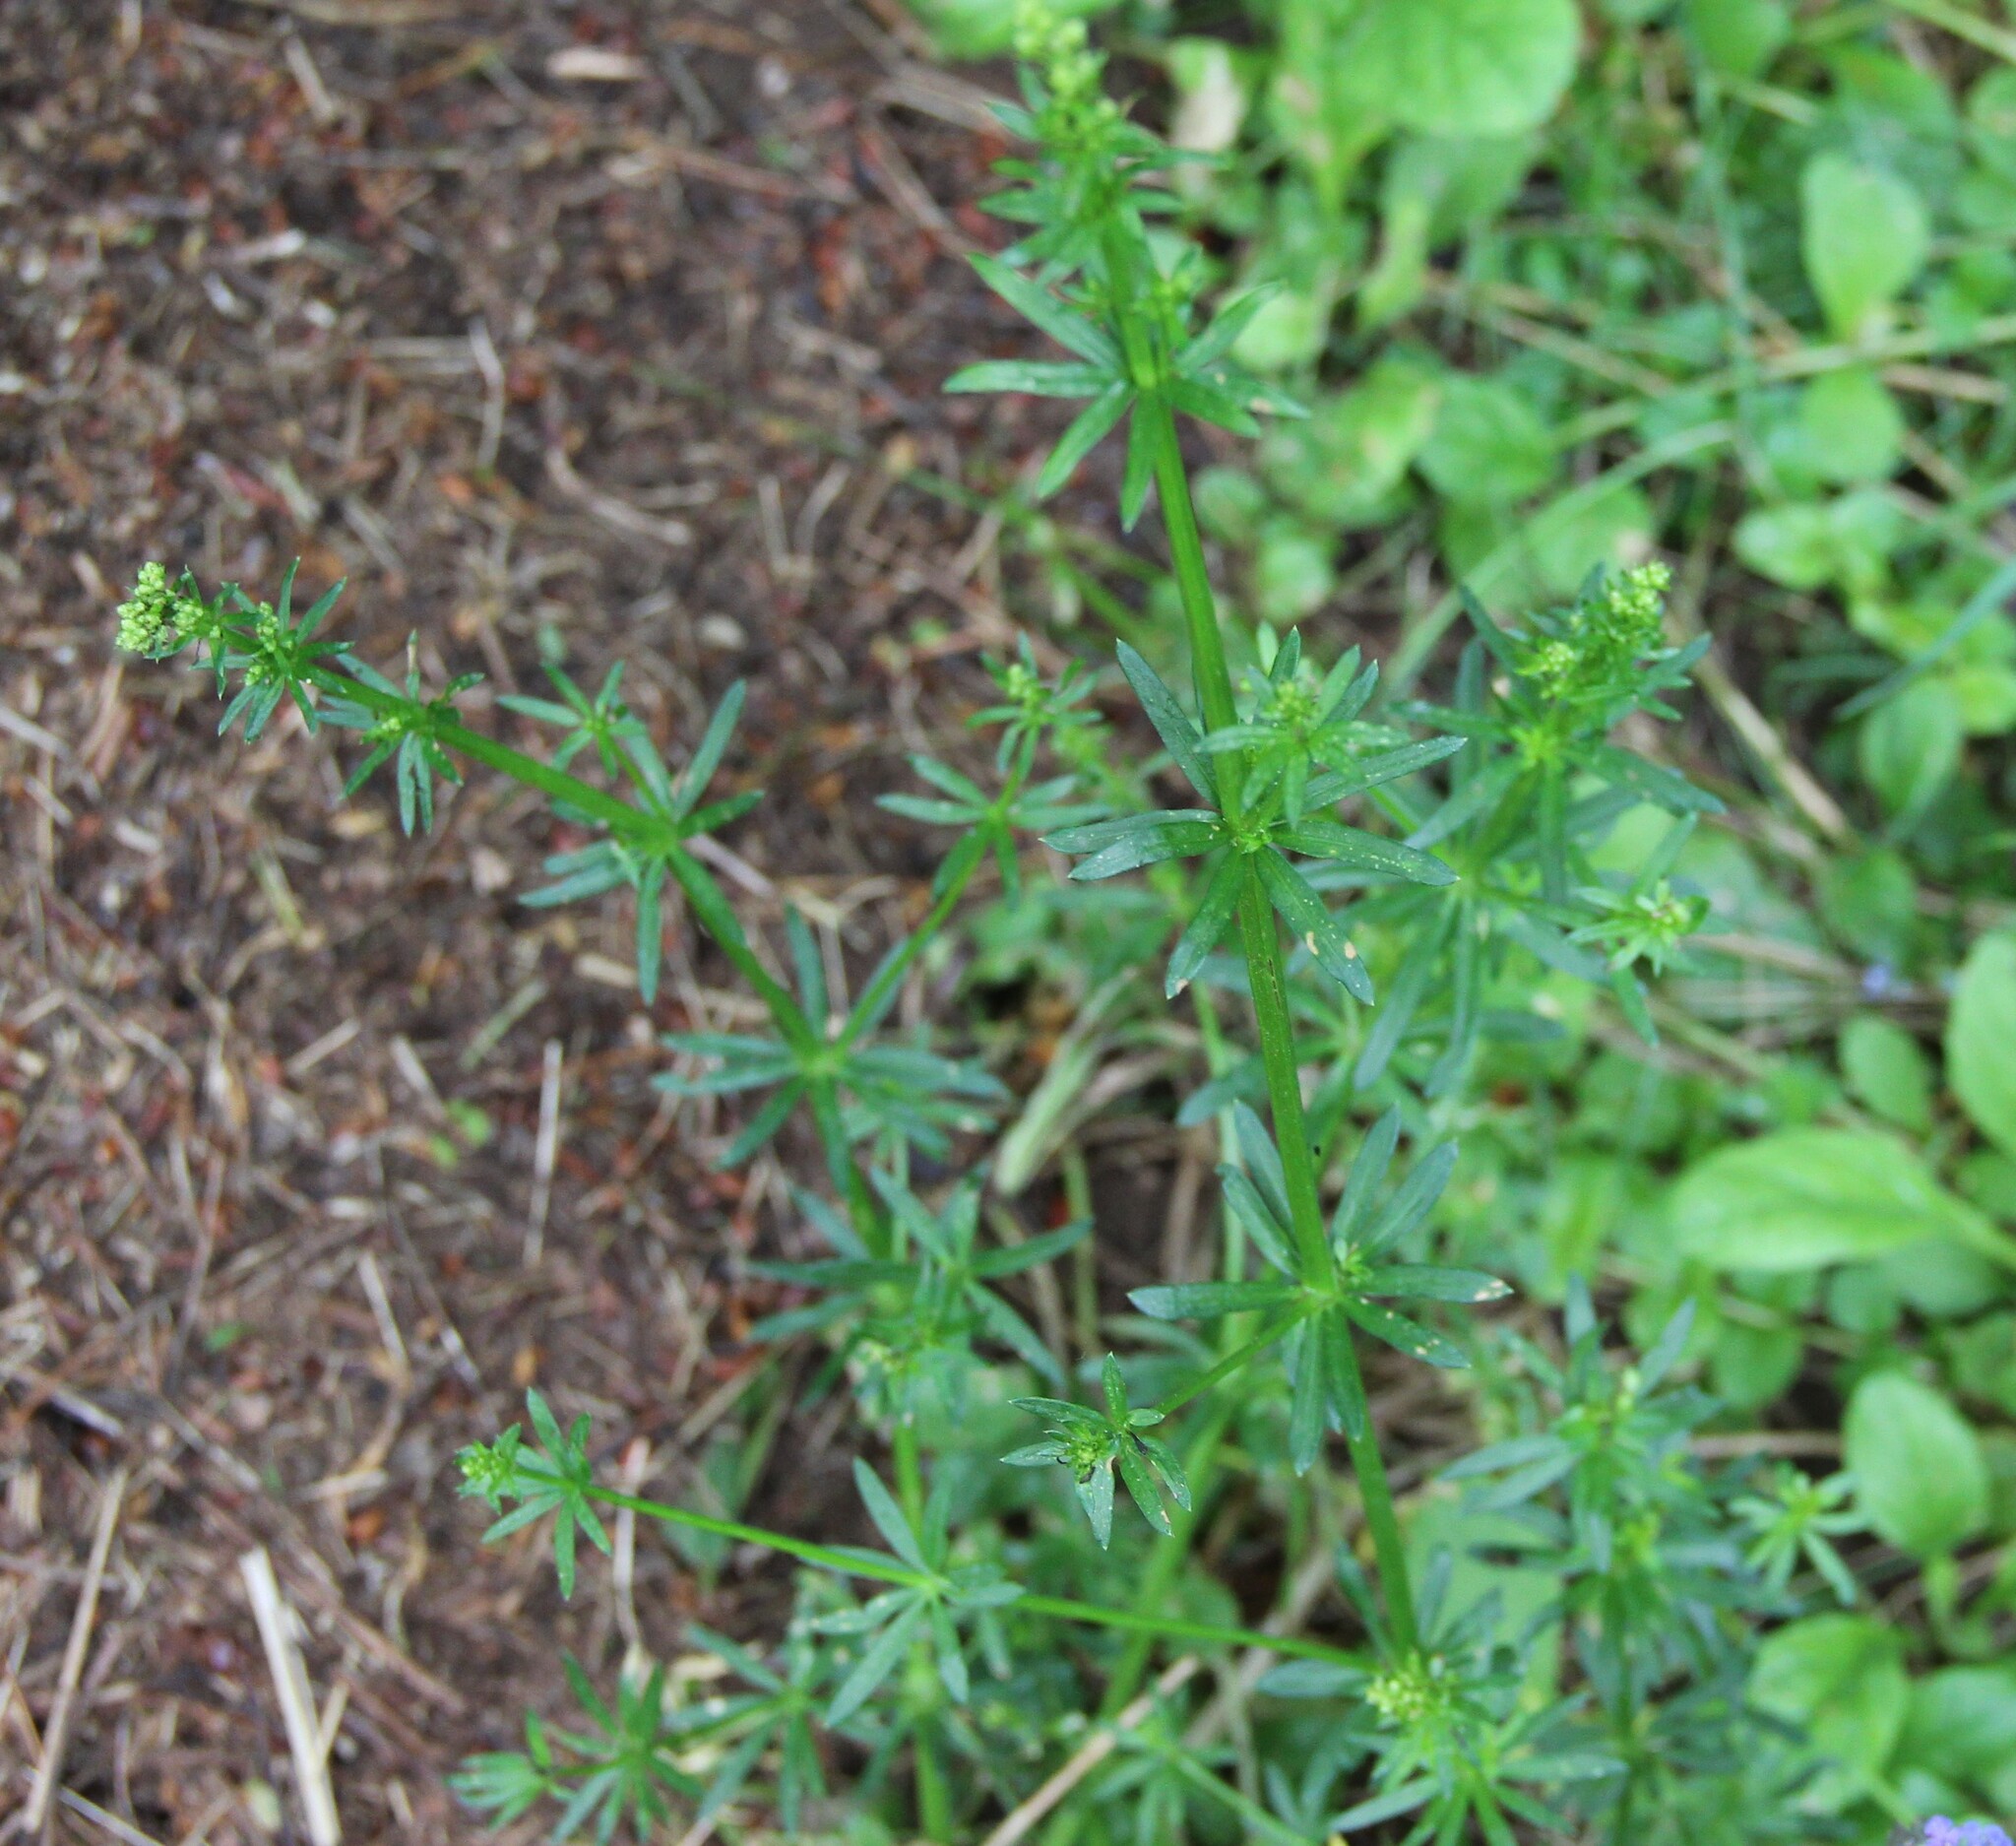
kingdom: Plantae
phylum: Tracheophyta
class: Magnoliopsida
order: Gentianales
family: Rubiaceae
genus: Galium
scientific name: Galium mollugo
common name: Hedge bedstraw
